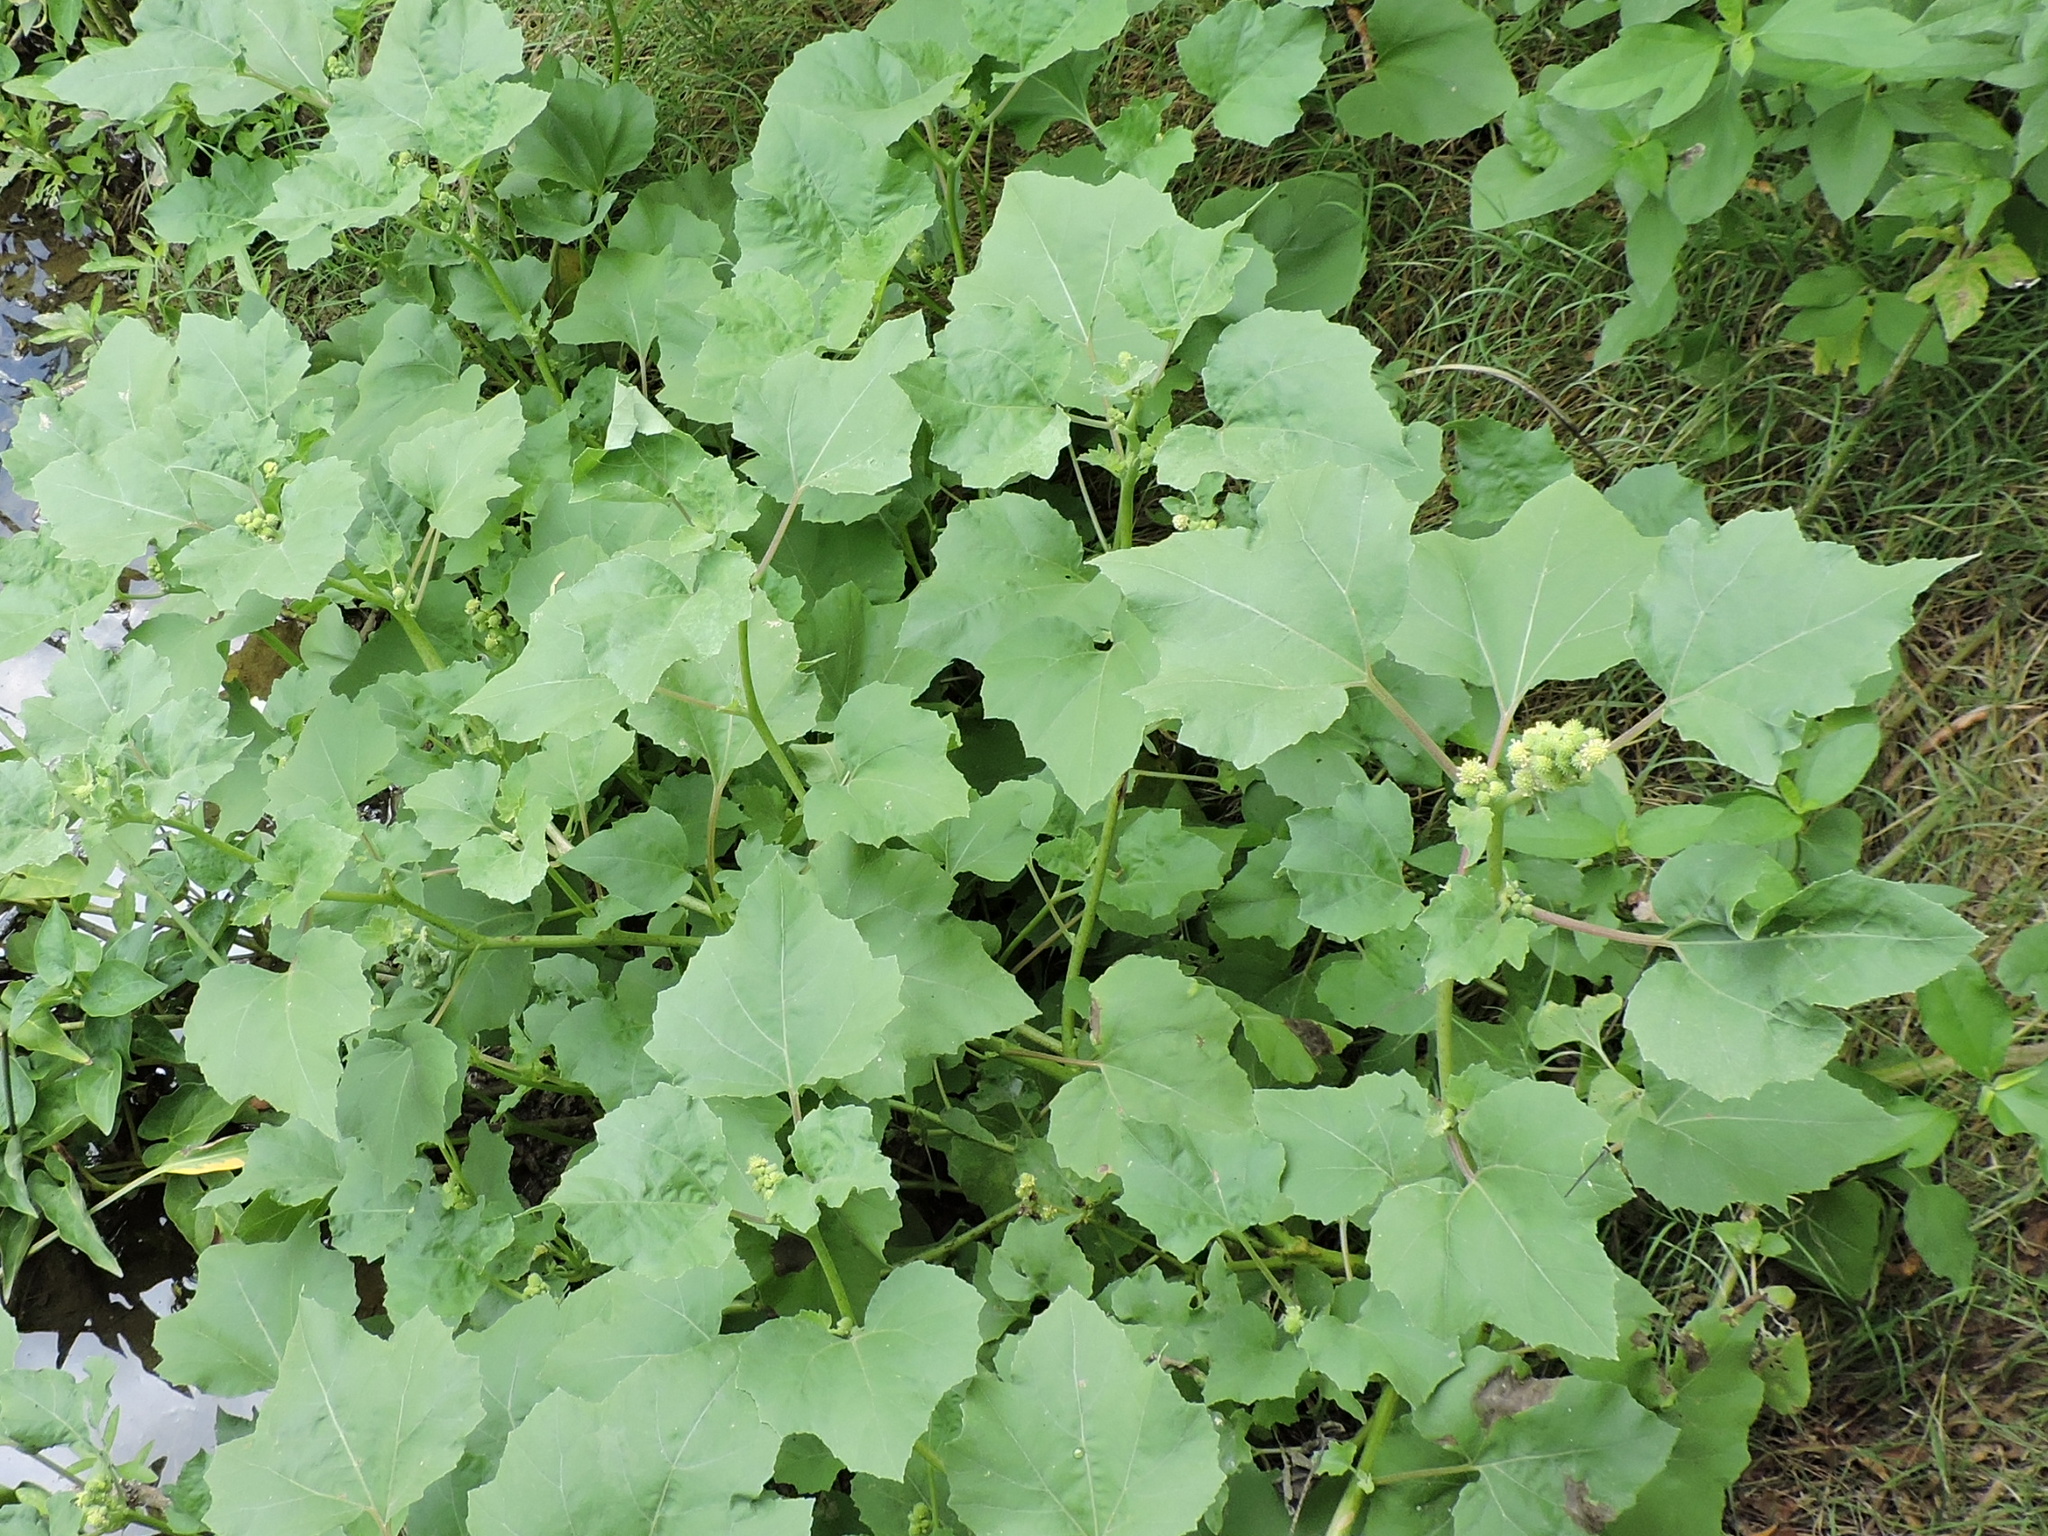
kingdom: Plantae
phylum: Tracheophyta
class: Magnoliopsida
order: Asterales
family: Asteraceae
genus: Xanthium
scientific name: Xanthium strumarium
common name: Rough cocklebur
